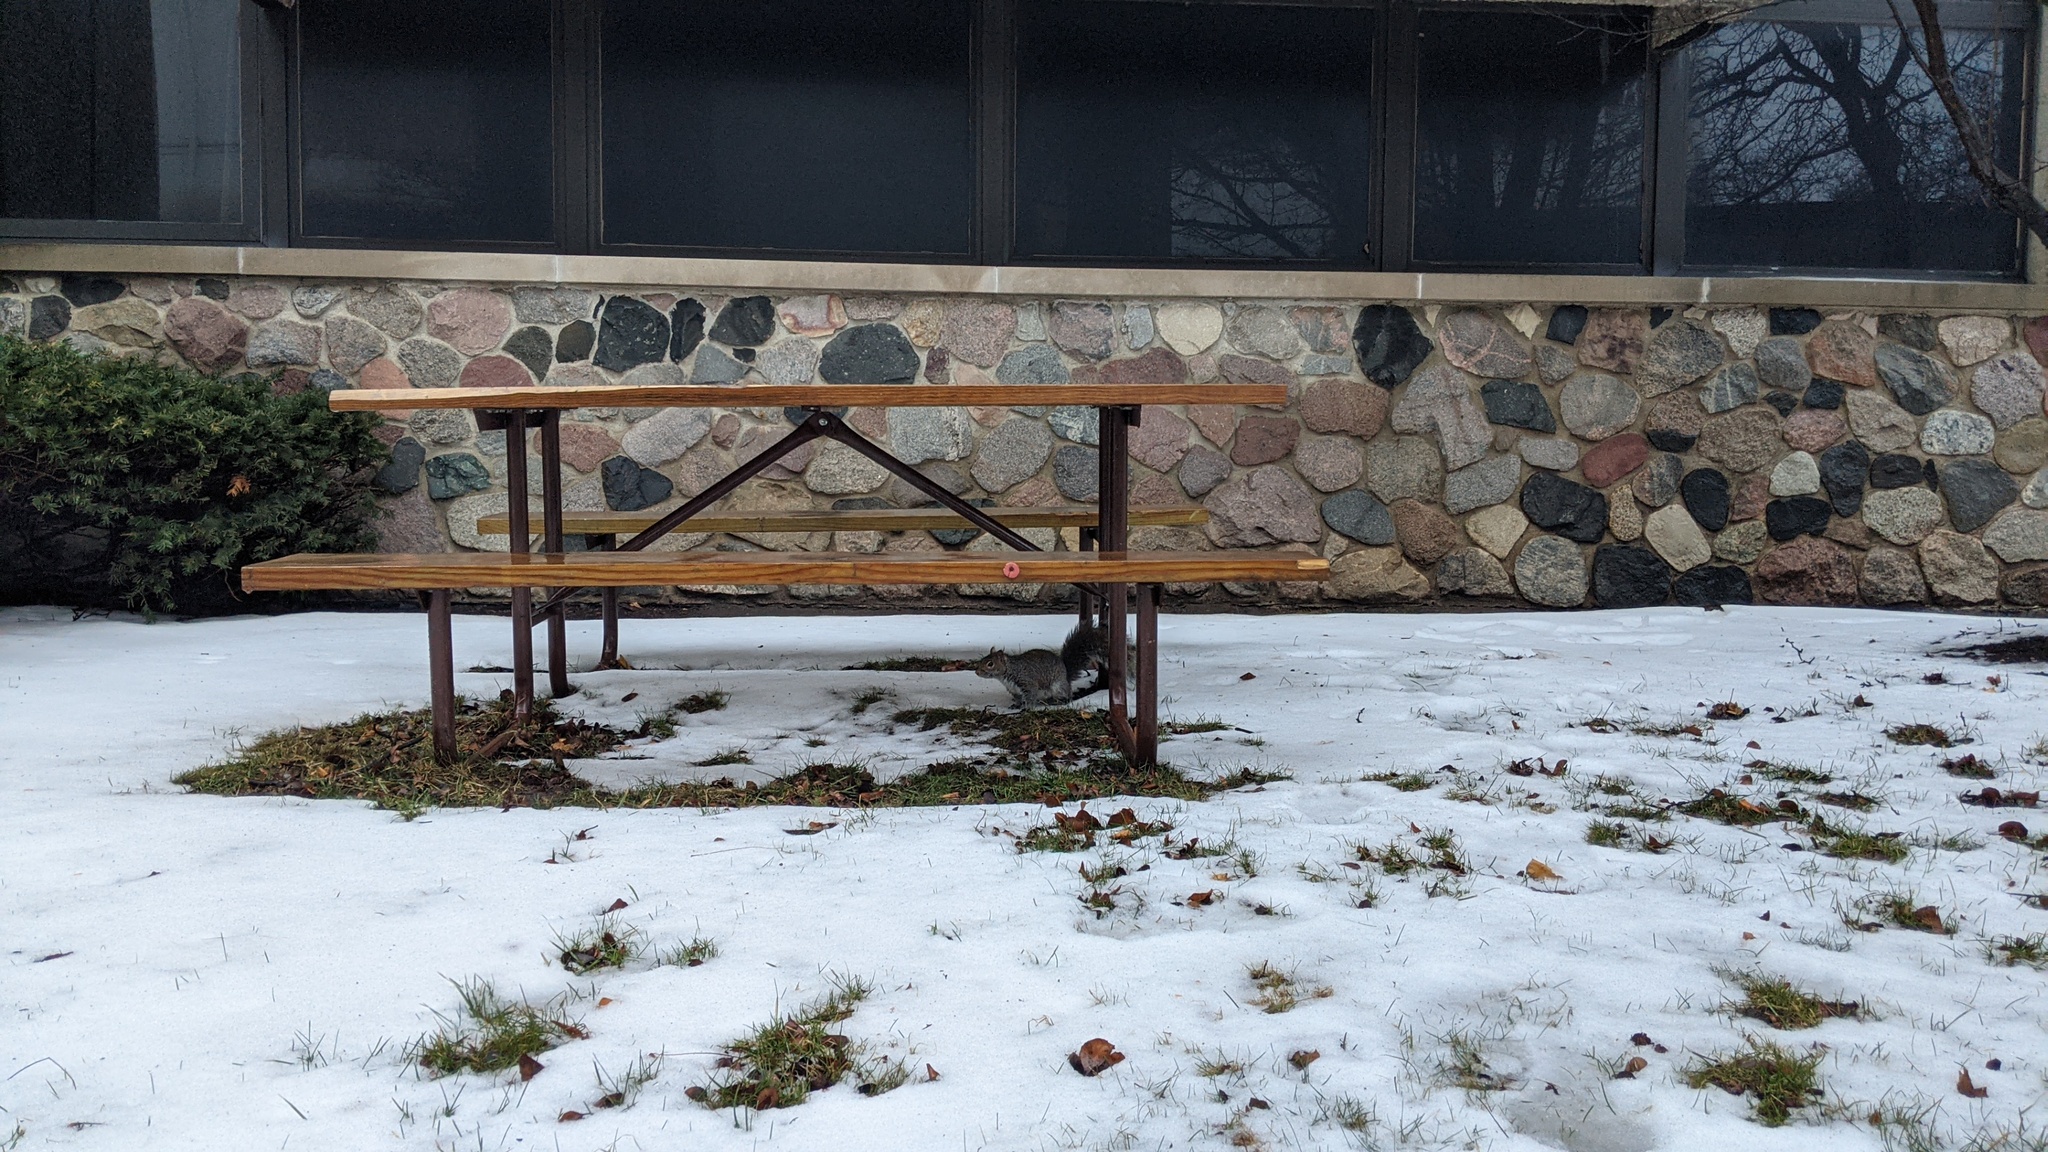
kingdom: Animalia
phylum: Chordata
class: Mammalia
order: Rodentia
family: Sciuridae
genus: Sciurus
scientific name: Sciurus carolinensis
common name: Eastern gray squirrel
